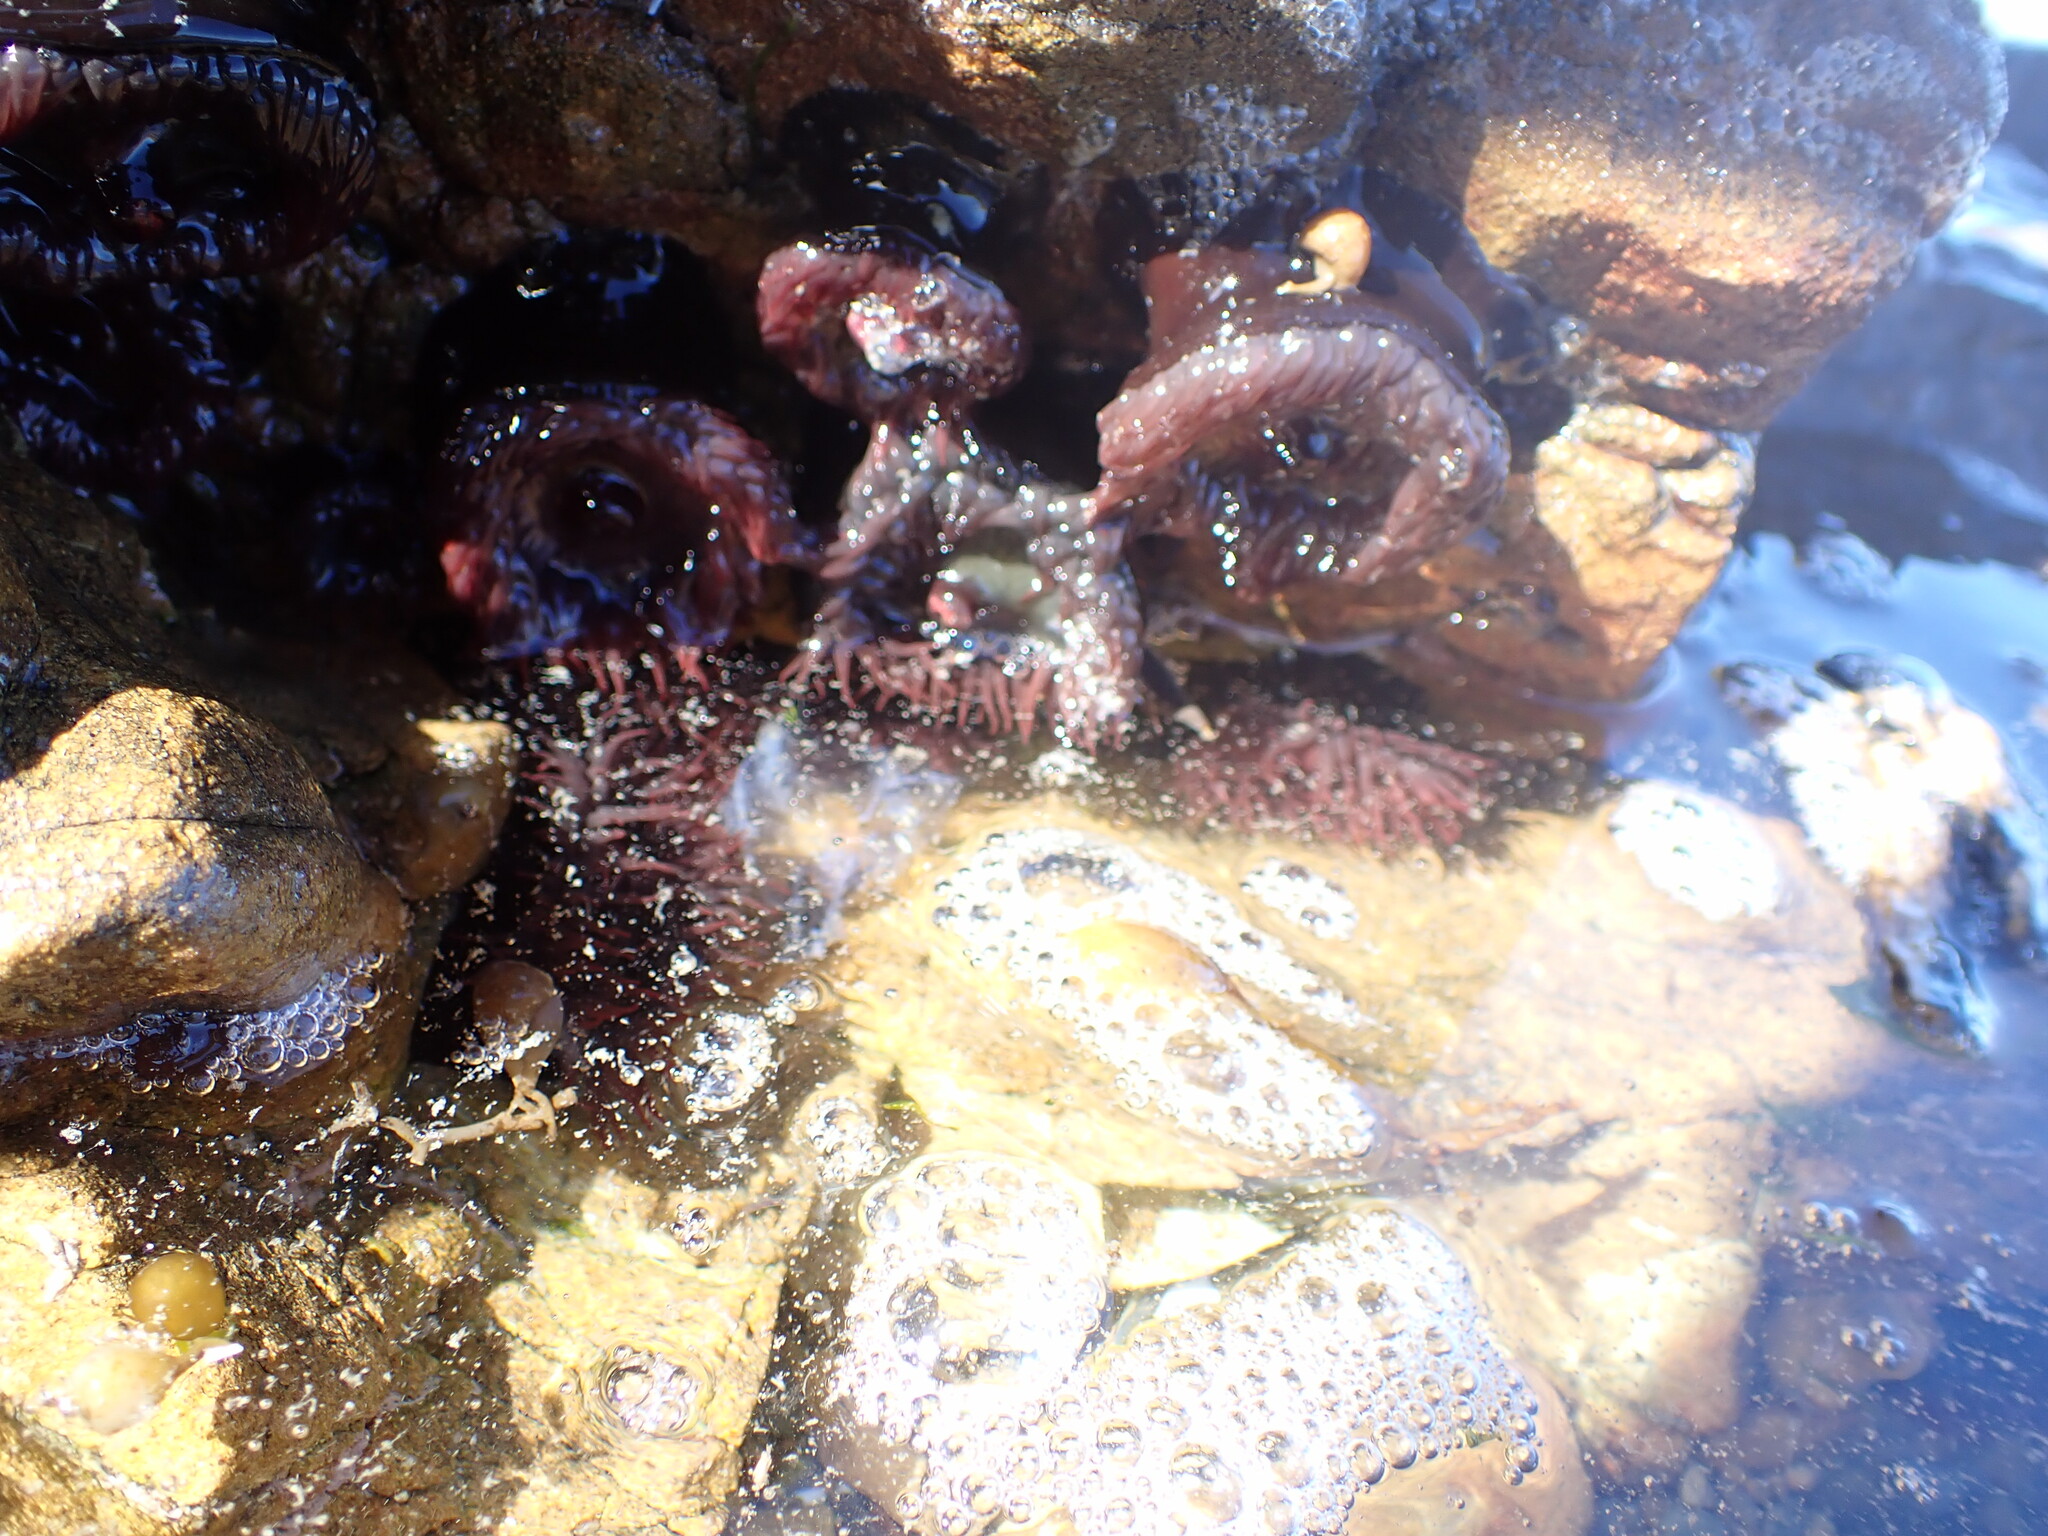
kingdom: Animalia
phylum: Cnidaria
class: Anthozoa
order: Actiniaria
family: Actiniidae
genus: Actinia
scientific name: Actinia tenebrosa
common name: Waratah anemone
